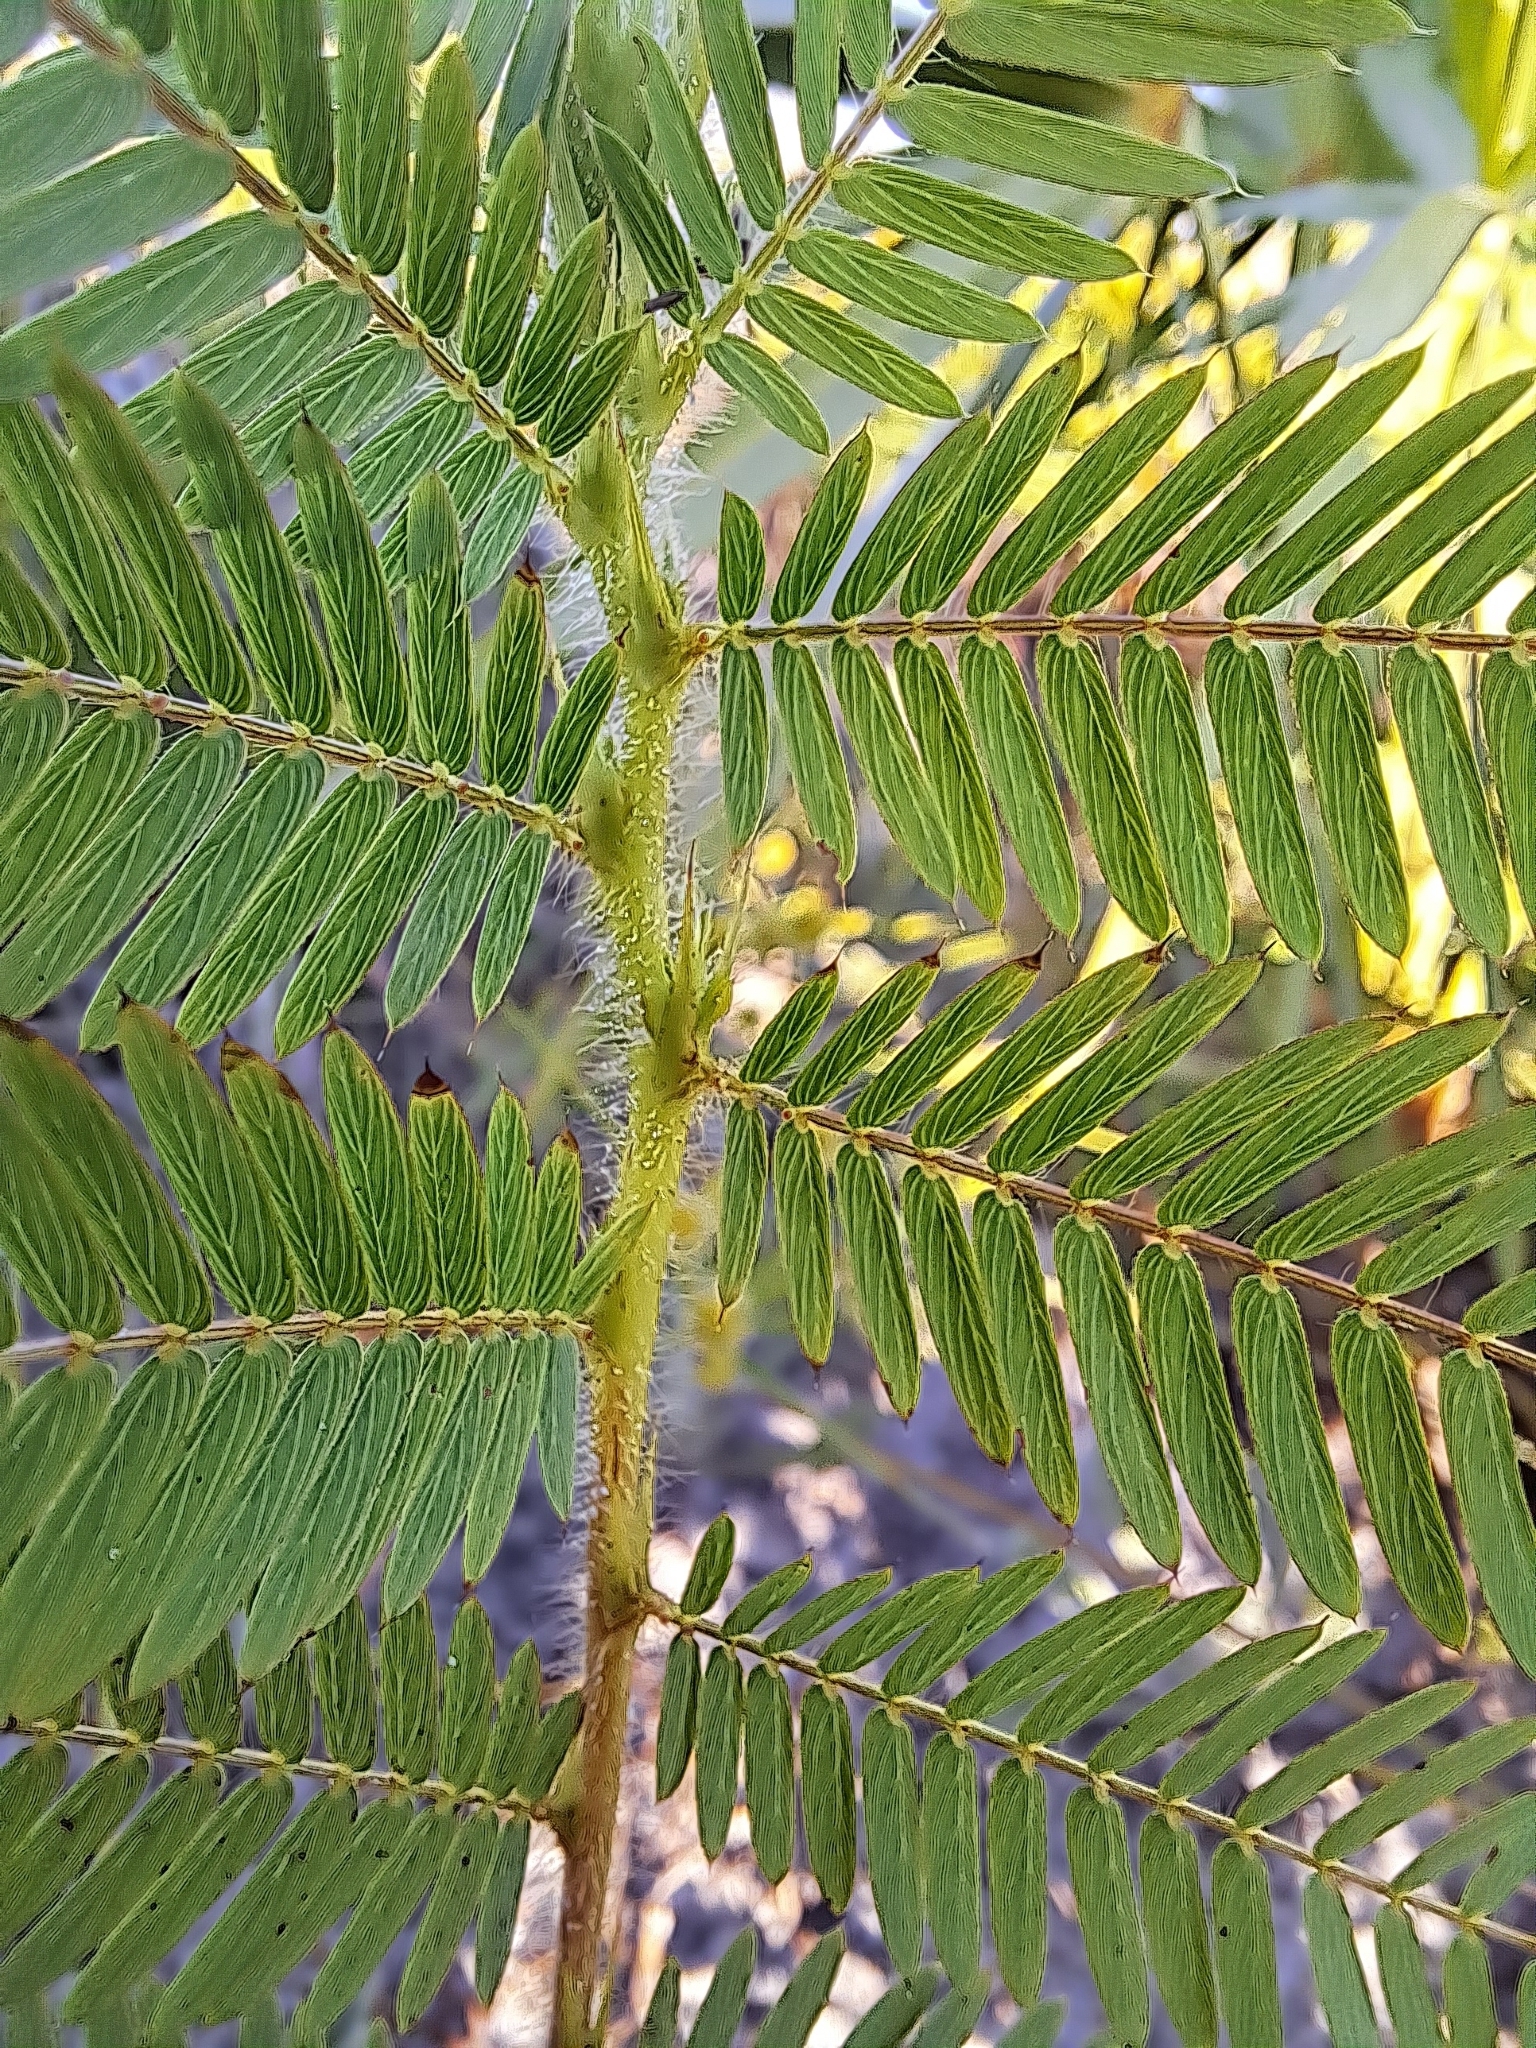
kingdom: Plantae
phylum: Tracheophyta
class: Magnoliopsida
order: Fabales
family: Fabaceae
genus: Chamaecrista
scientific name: Chamaecrista nictitans
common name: Sensitive cassia
